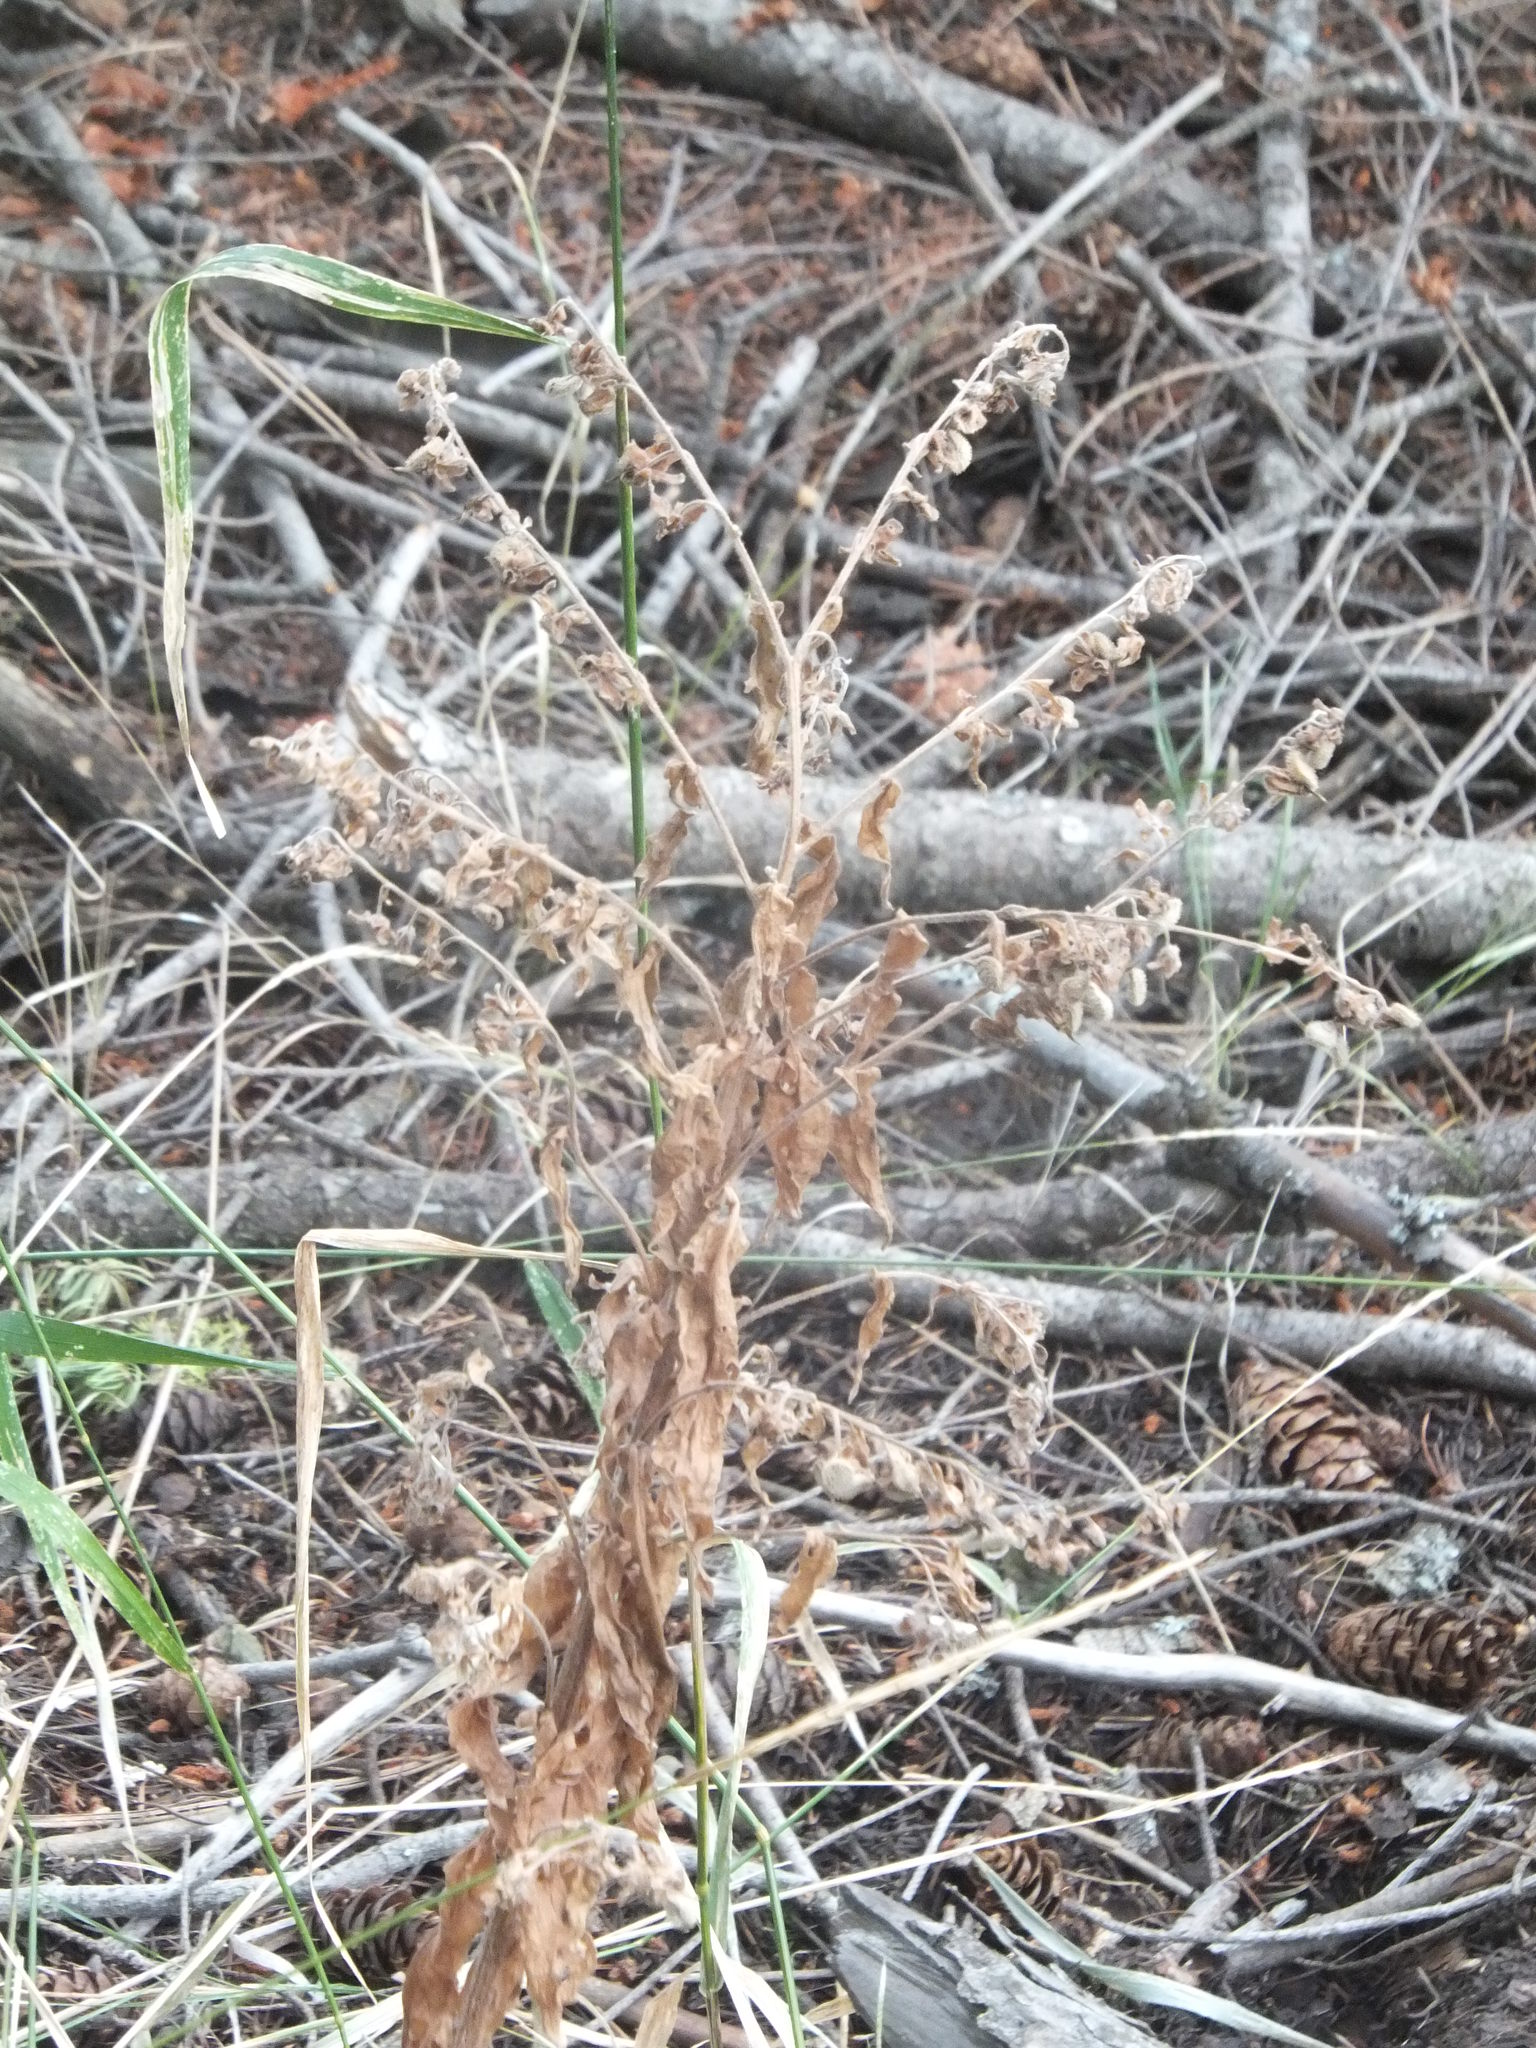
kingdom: Plantae
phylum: Tracheophyta
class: Magnoliopsida
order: Boraginales
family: Boraginaceae
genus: Cynoglossum
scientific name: Cynoglossum officinale
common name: Hound's-tongue
